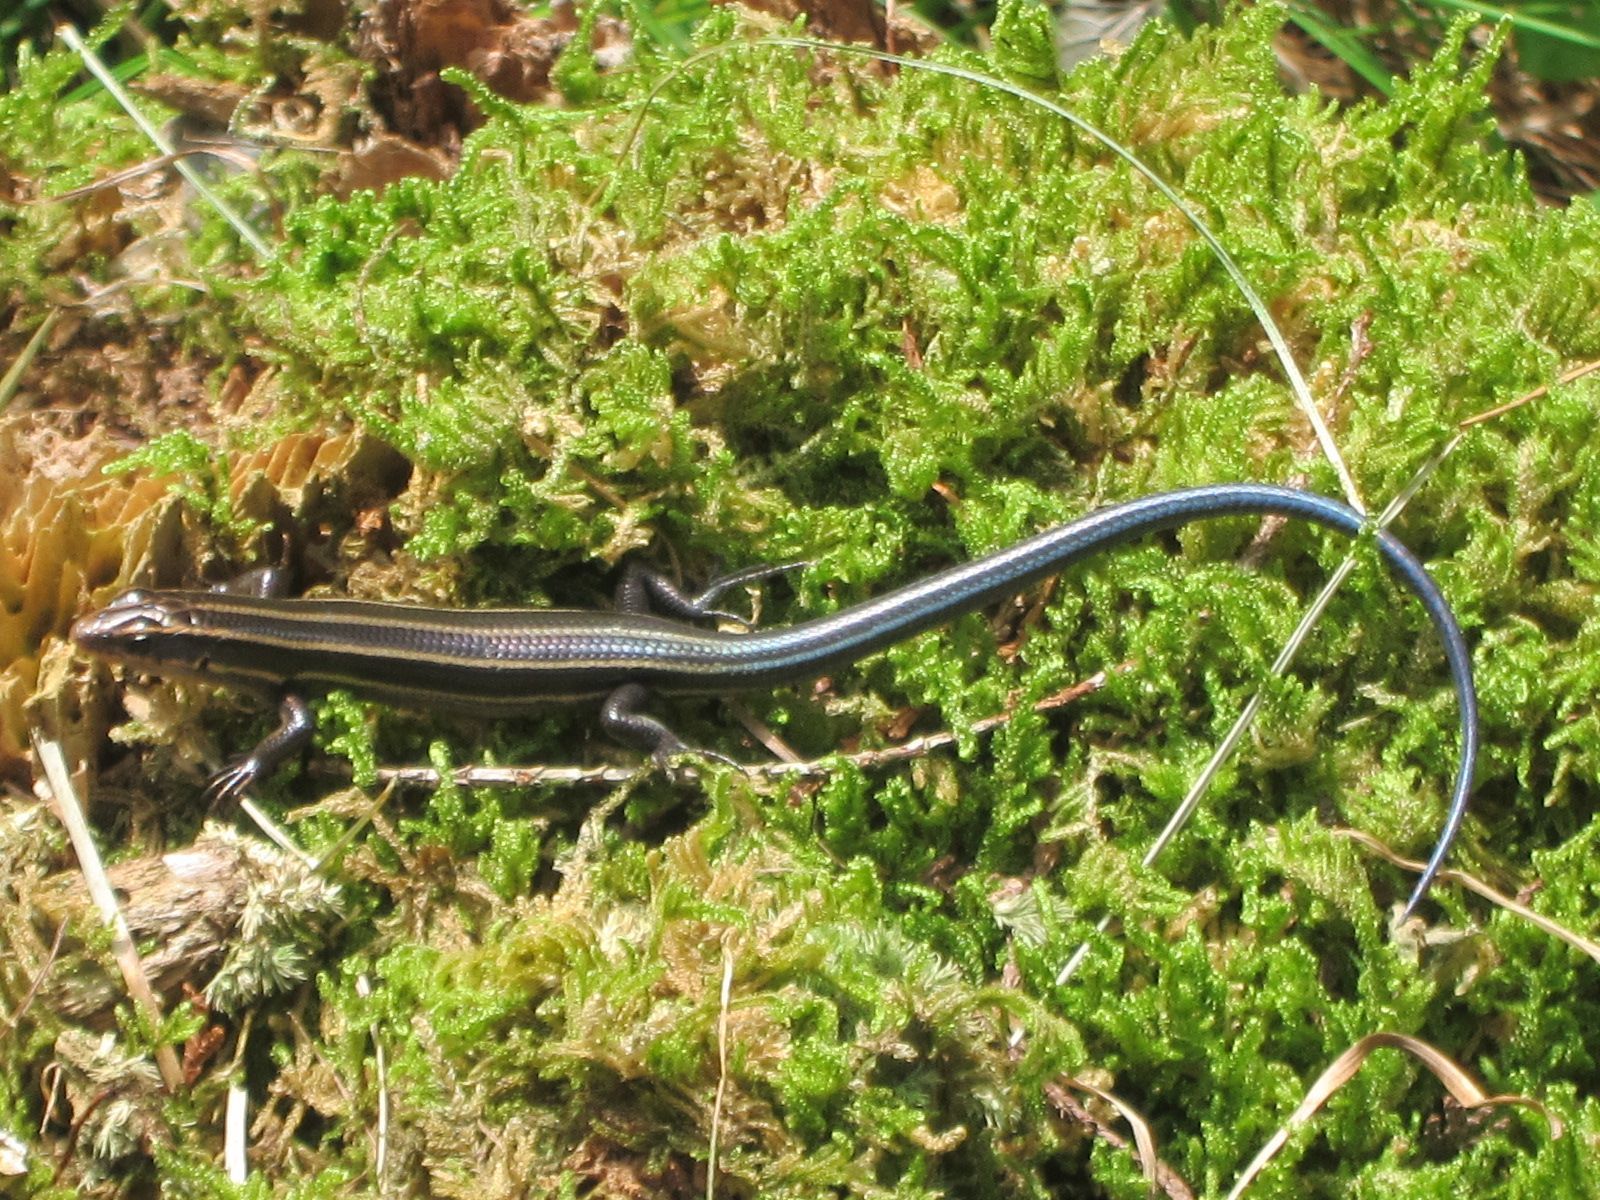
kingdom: Animalia
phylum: Chordata
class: Squamata
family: Scincidae
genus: Plestiodon
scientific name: Plestiodon finitimus
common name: Far eastern skink
